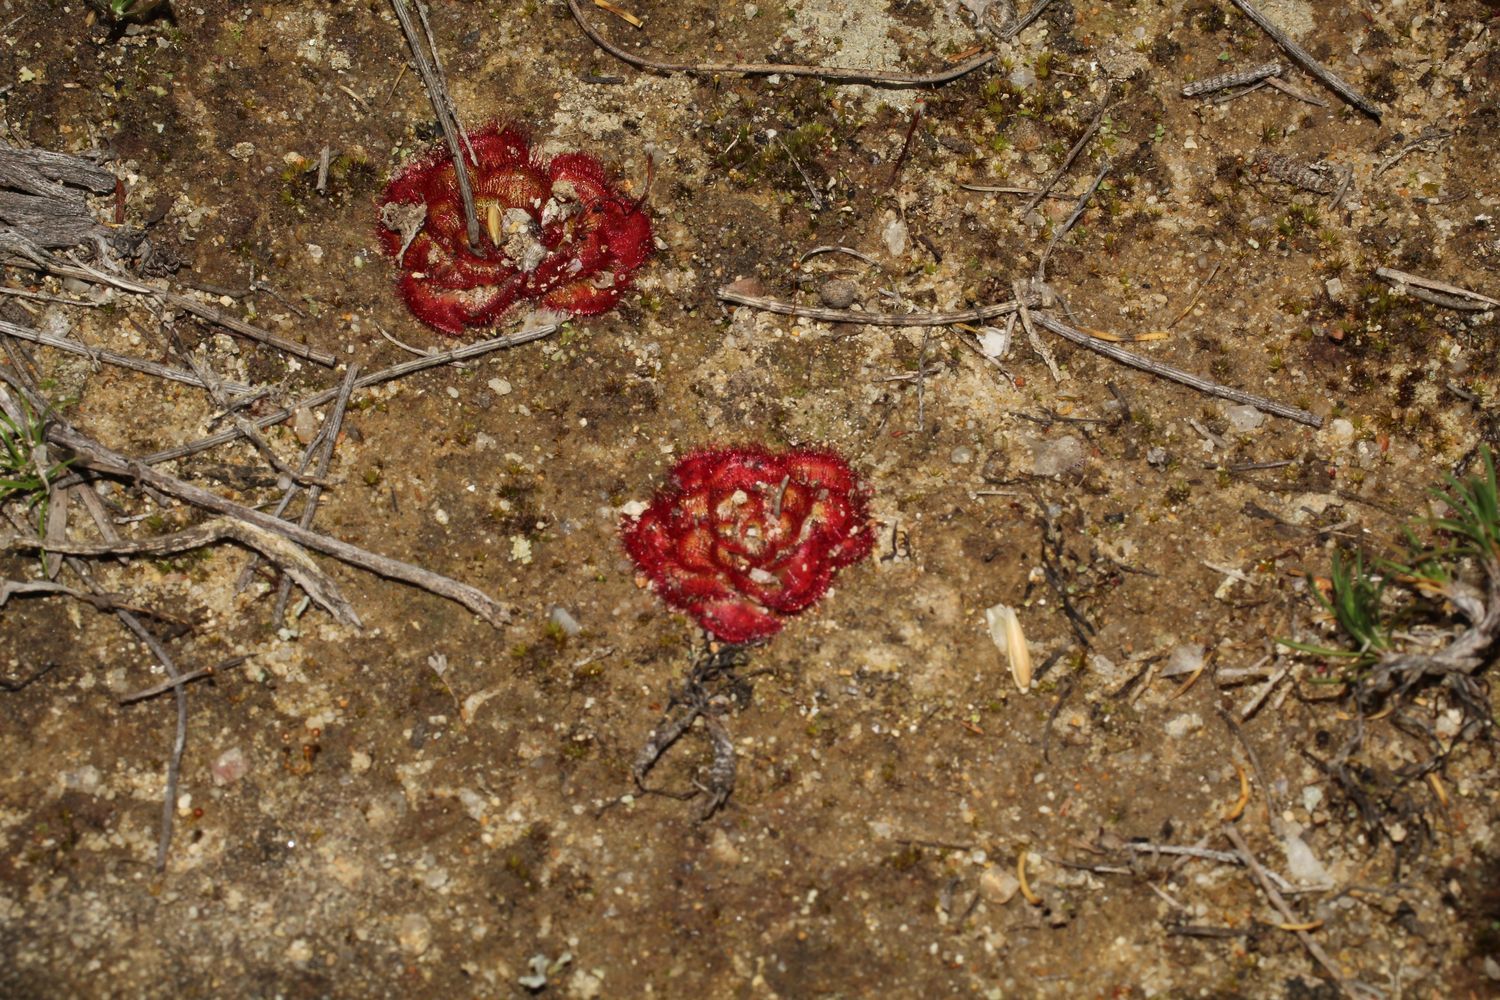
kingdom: Plantae
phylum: Tracheophyta
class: Magnoliopsida
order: Caryophyllales
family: Droseraceae
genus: Drosera
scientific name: Drosera zonaria
